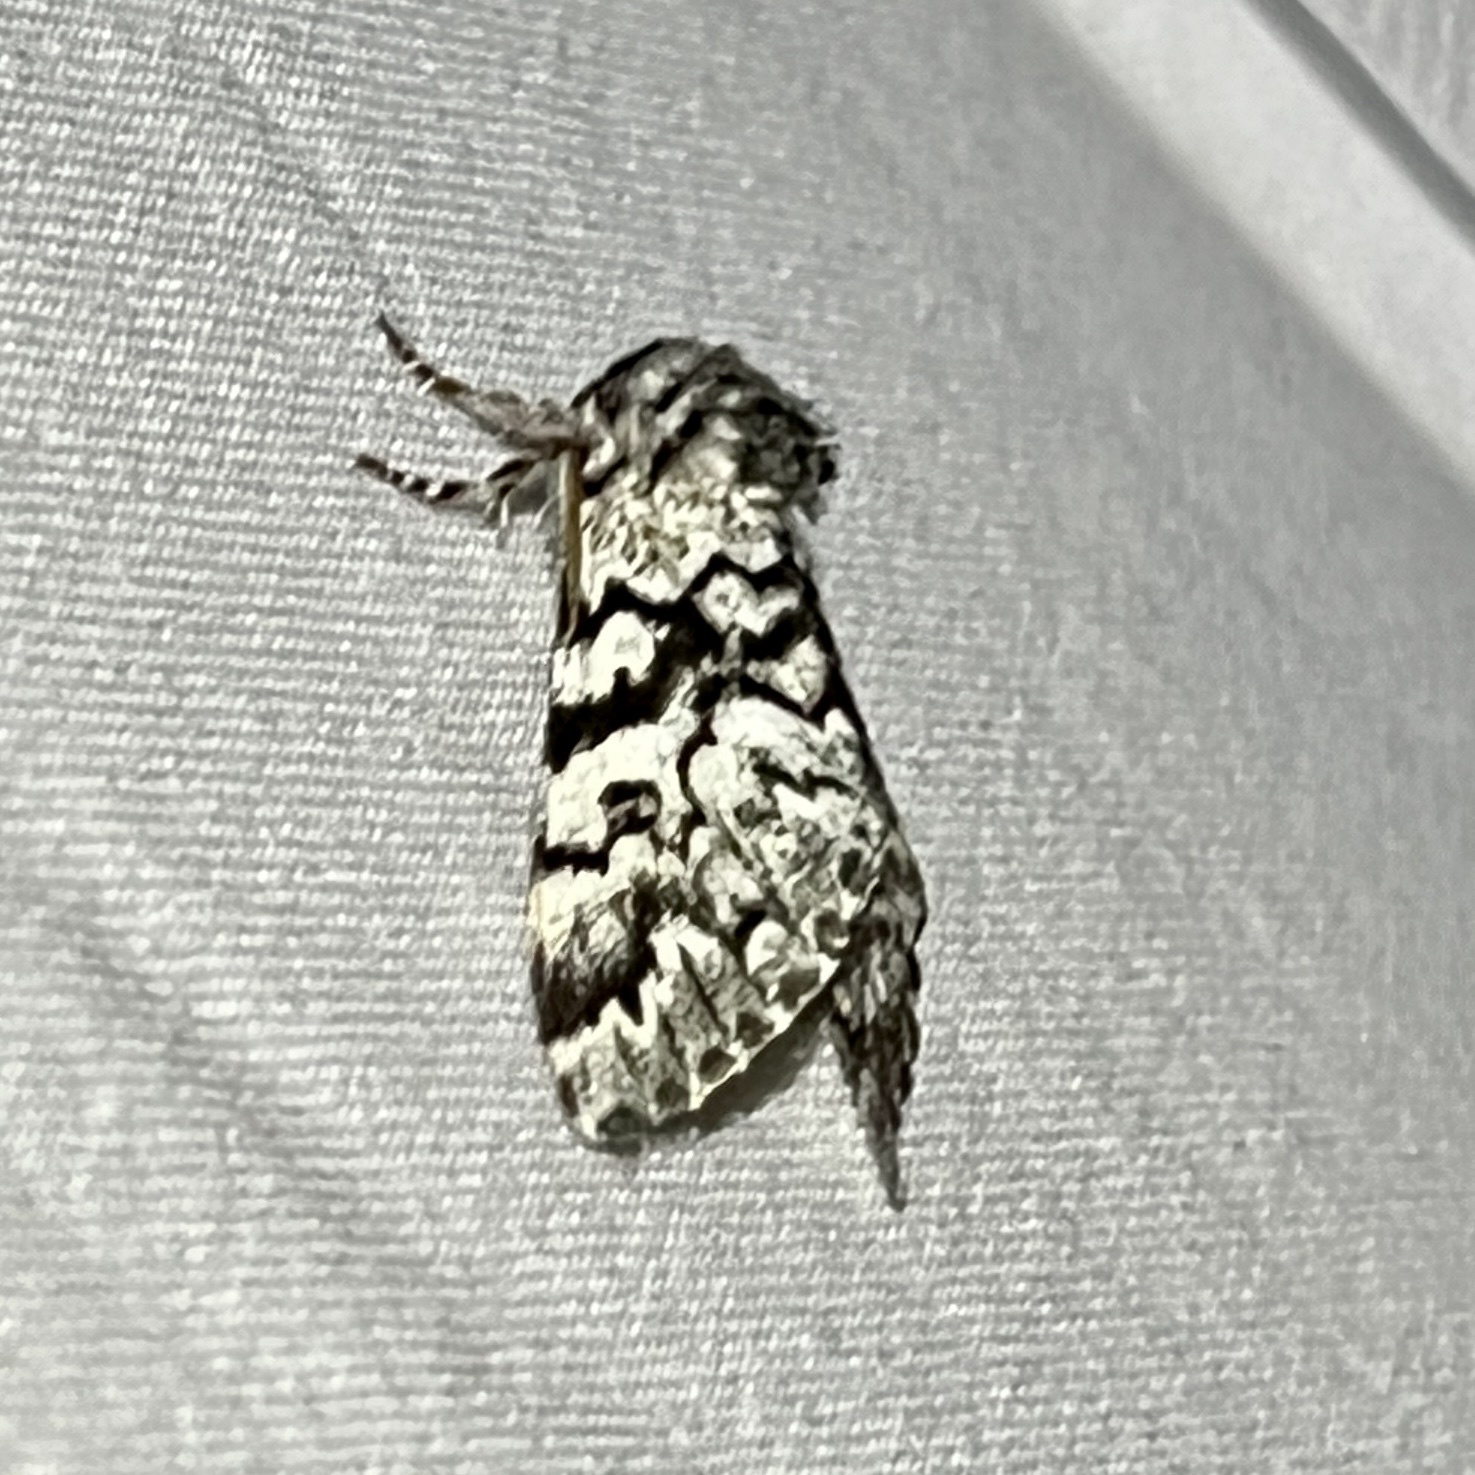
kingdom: Animalia
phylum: Arthropoda
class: Insecta
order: Lepidoptera
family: Noctuidae
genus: Panthea
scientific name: Panthea acronyctoides
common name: Black zigzag moth
